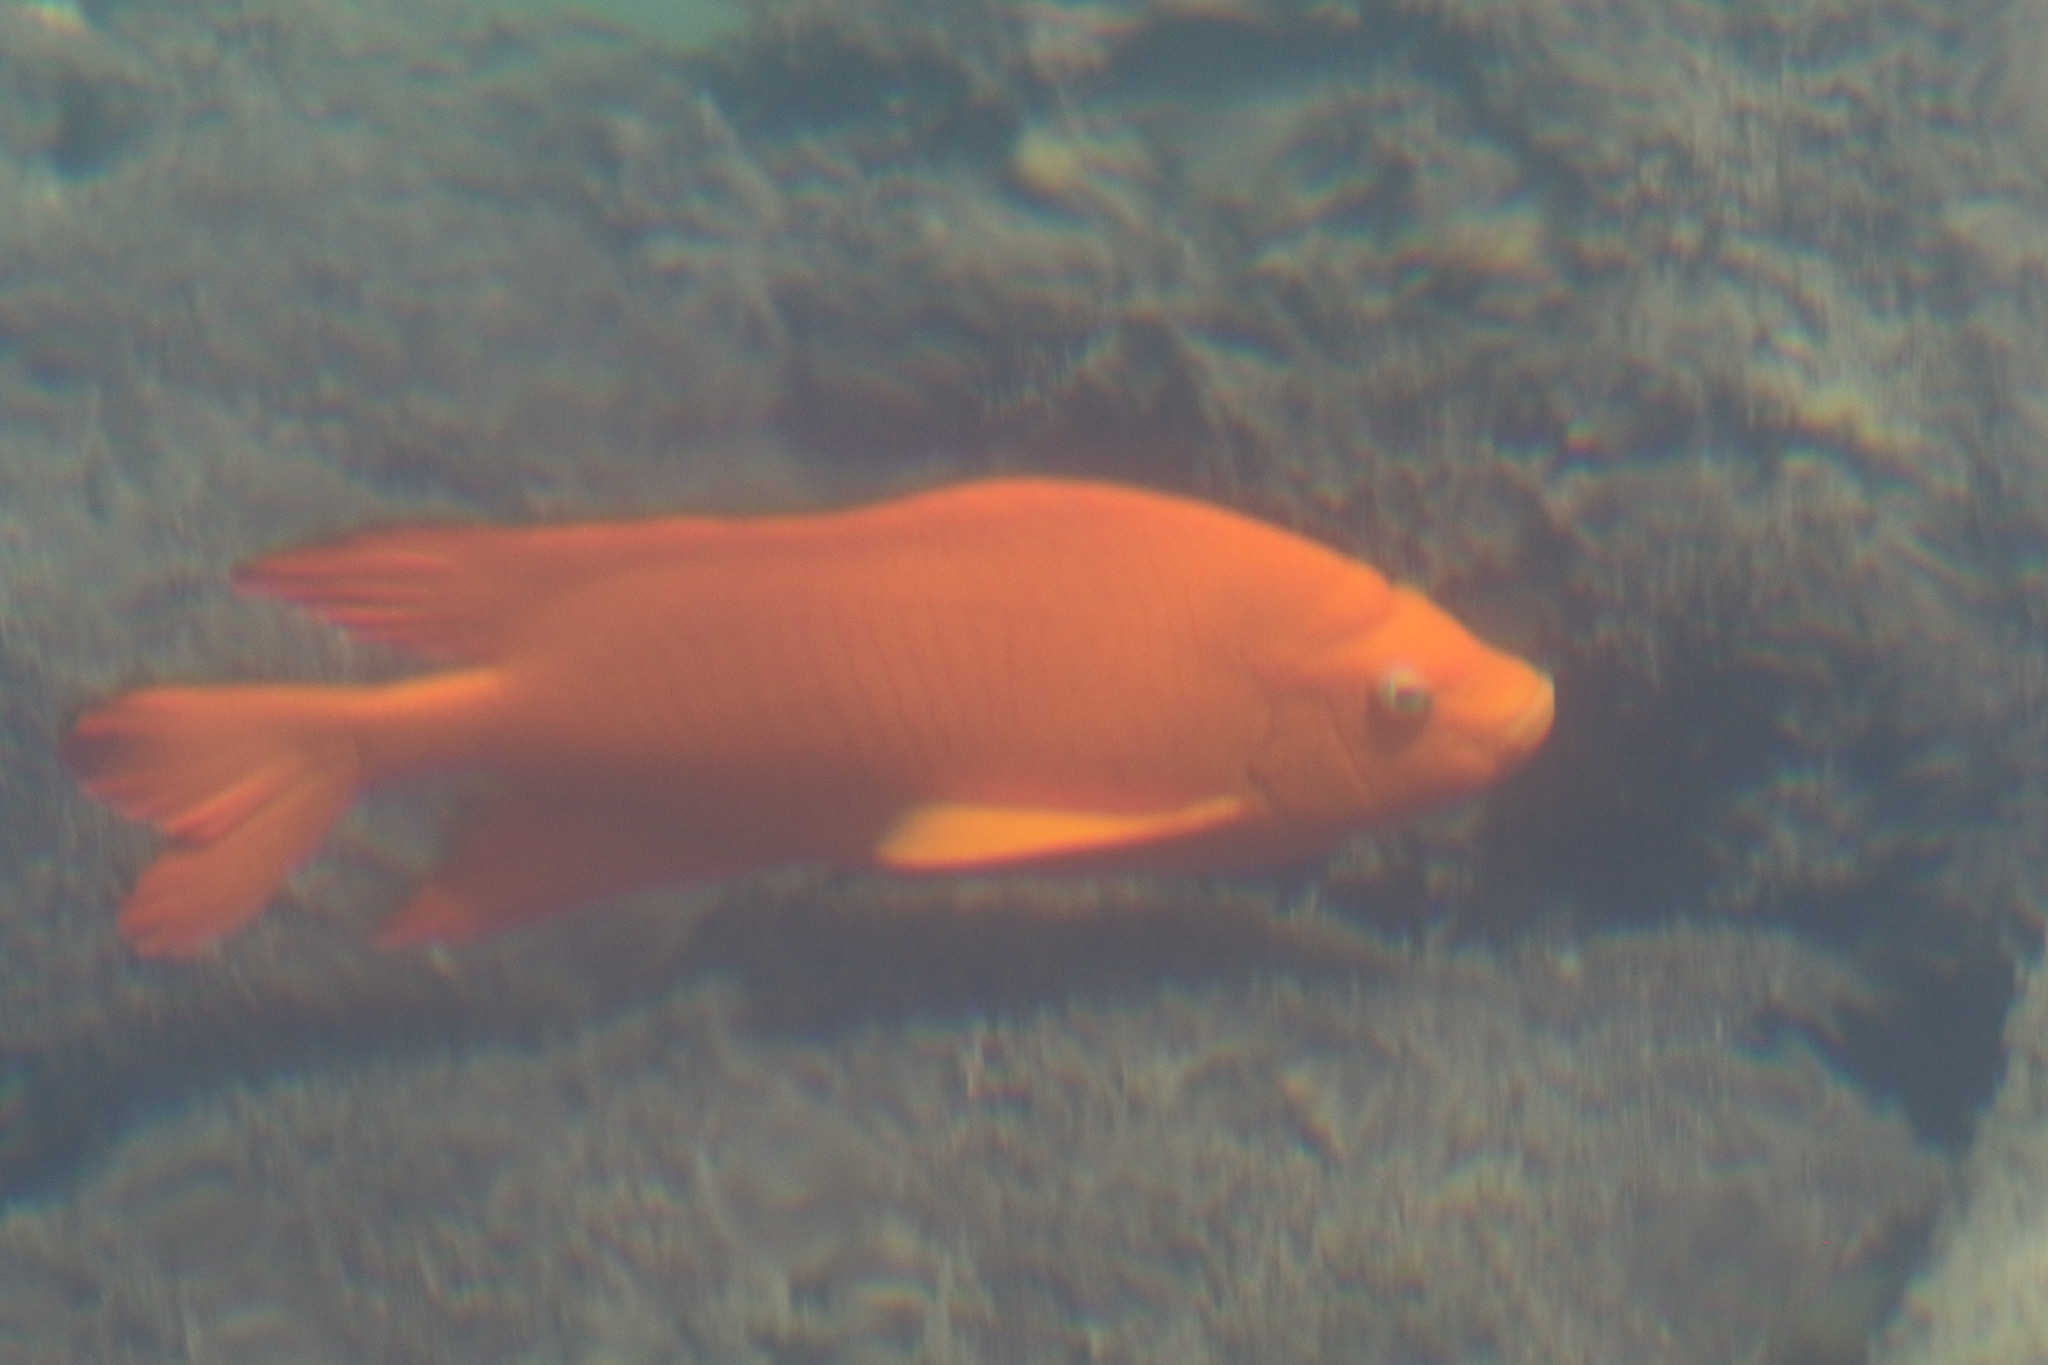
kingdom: Animalia
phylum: Chordata
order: Perciformes
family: Pomacentridae
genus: Hypsypops
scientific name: Hypsypops rubicundus
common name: Garibaldi
